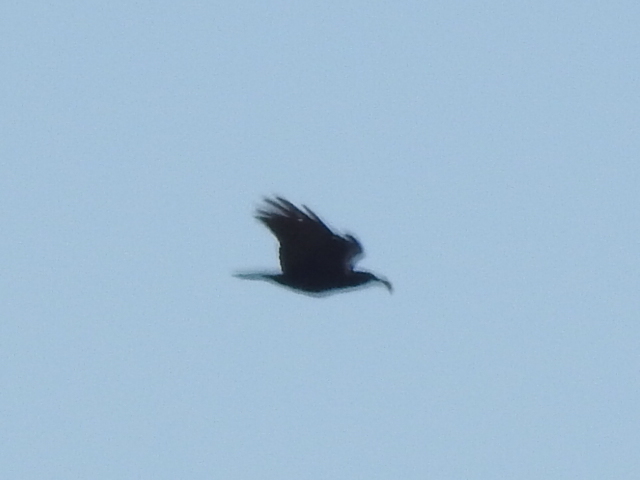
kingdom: Animalia
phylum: Chordata
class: Aves
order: Passeriformes
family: Corvidae
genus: Corvus
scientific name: Corvus brachyrhynchos
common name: American crow
